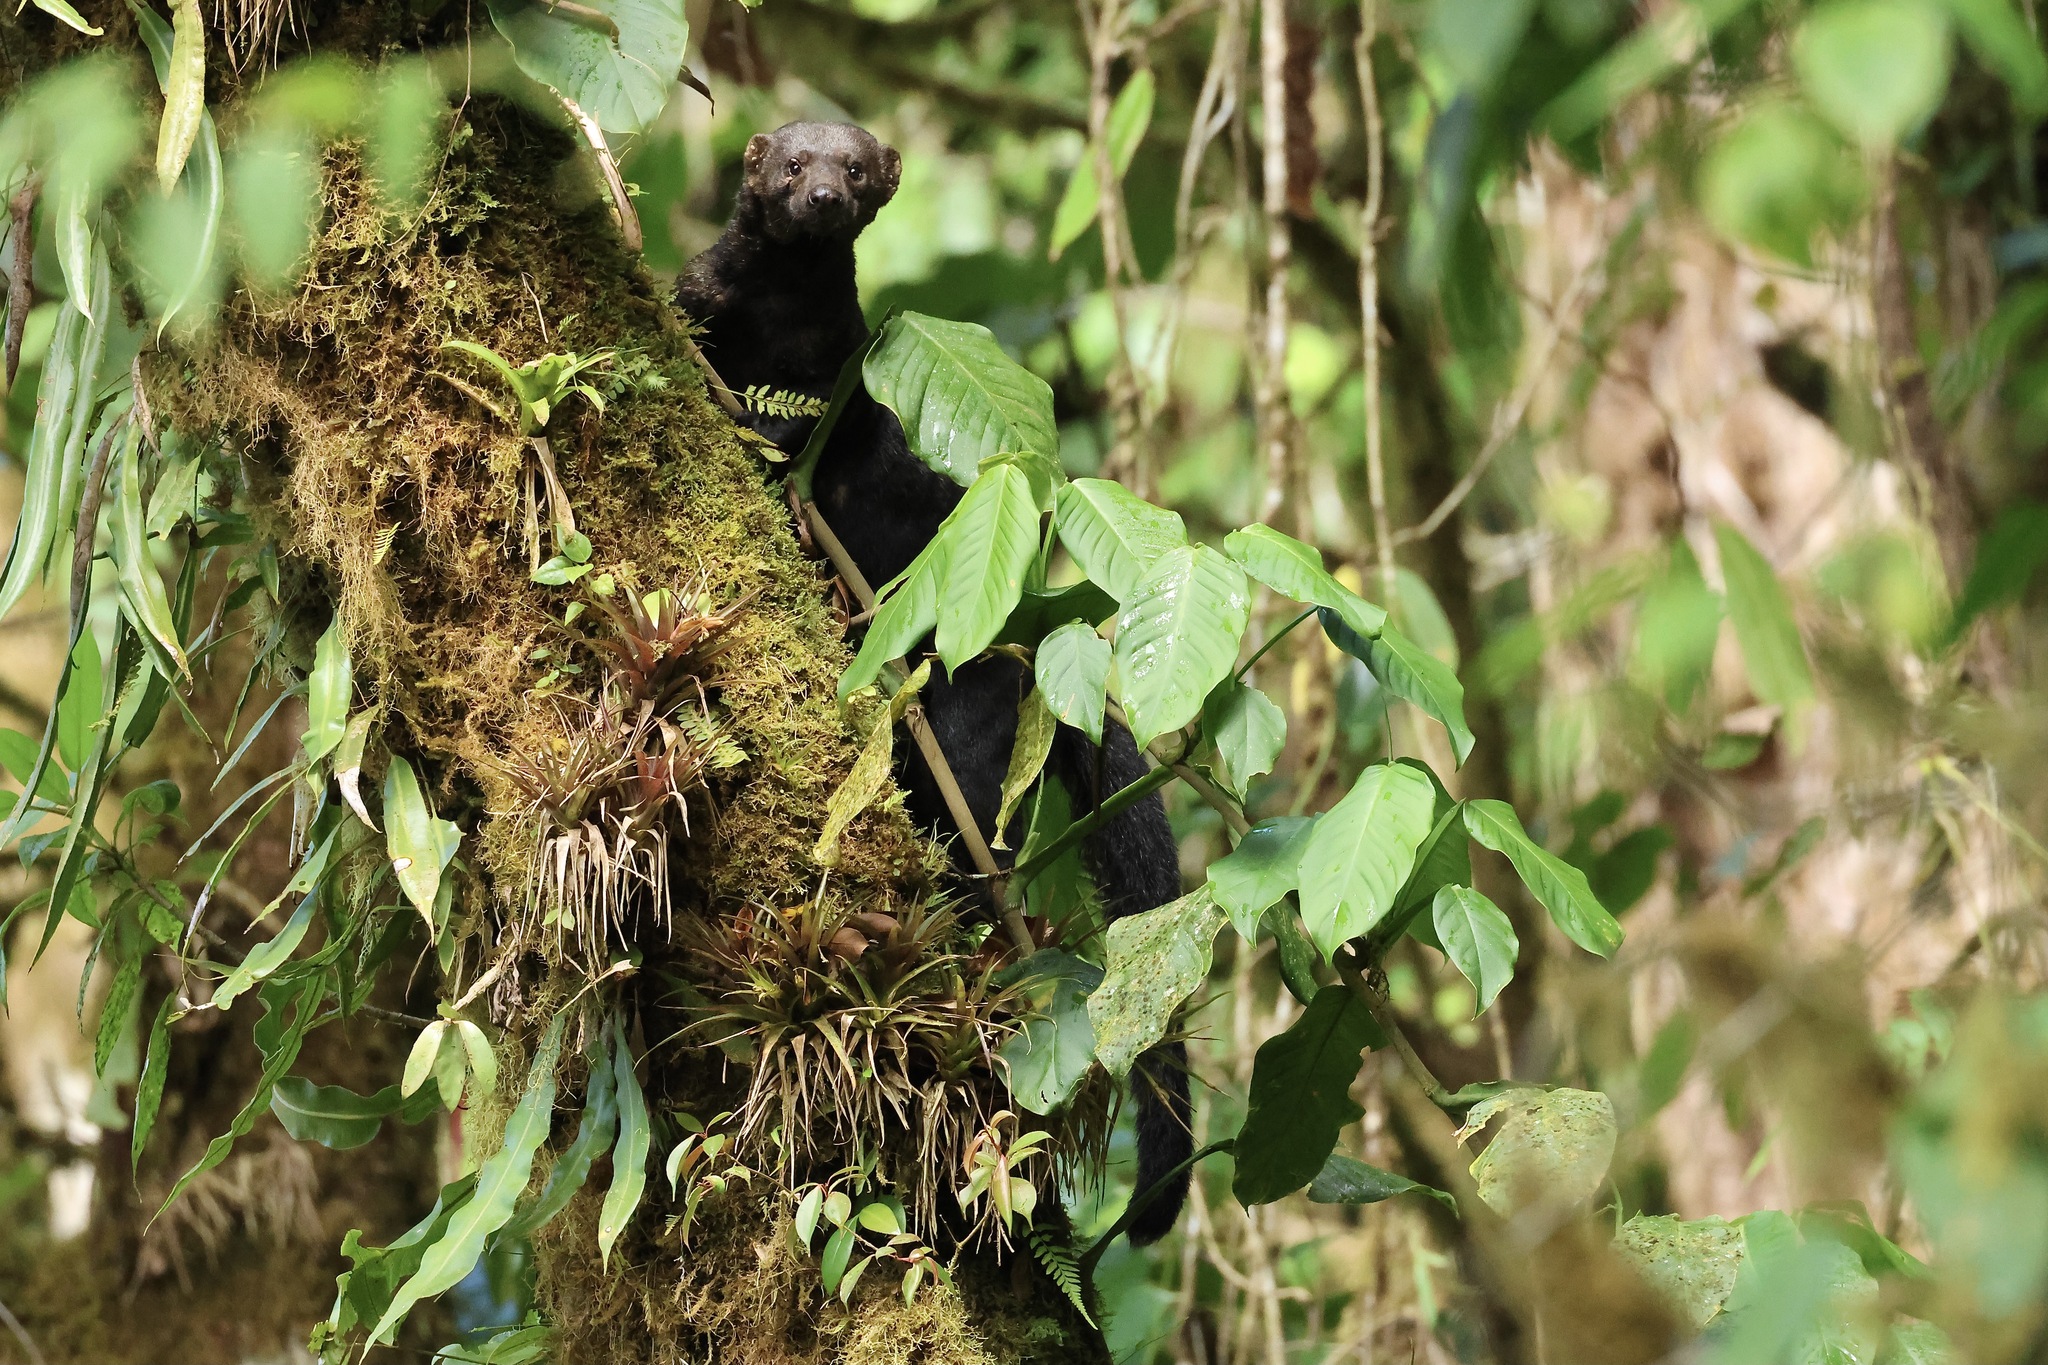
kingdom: Animalia
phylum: Chordata
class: Mammalia
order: Carnivora
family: Mustelidae
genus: Eira
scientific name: Eira barbara
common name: Tayra
